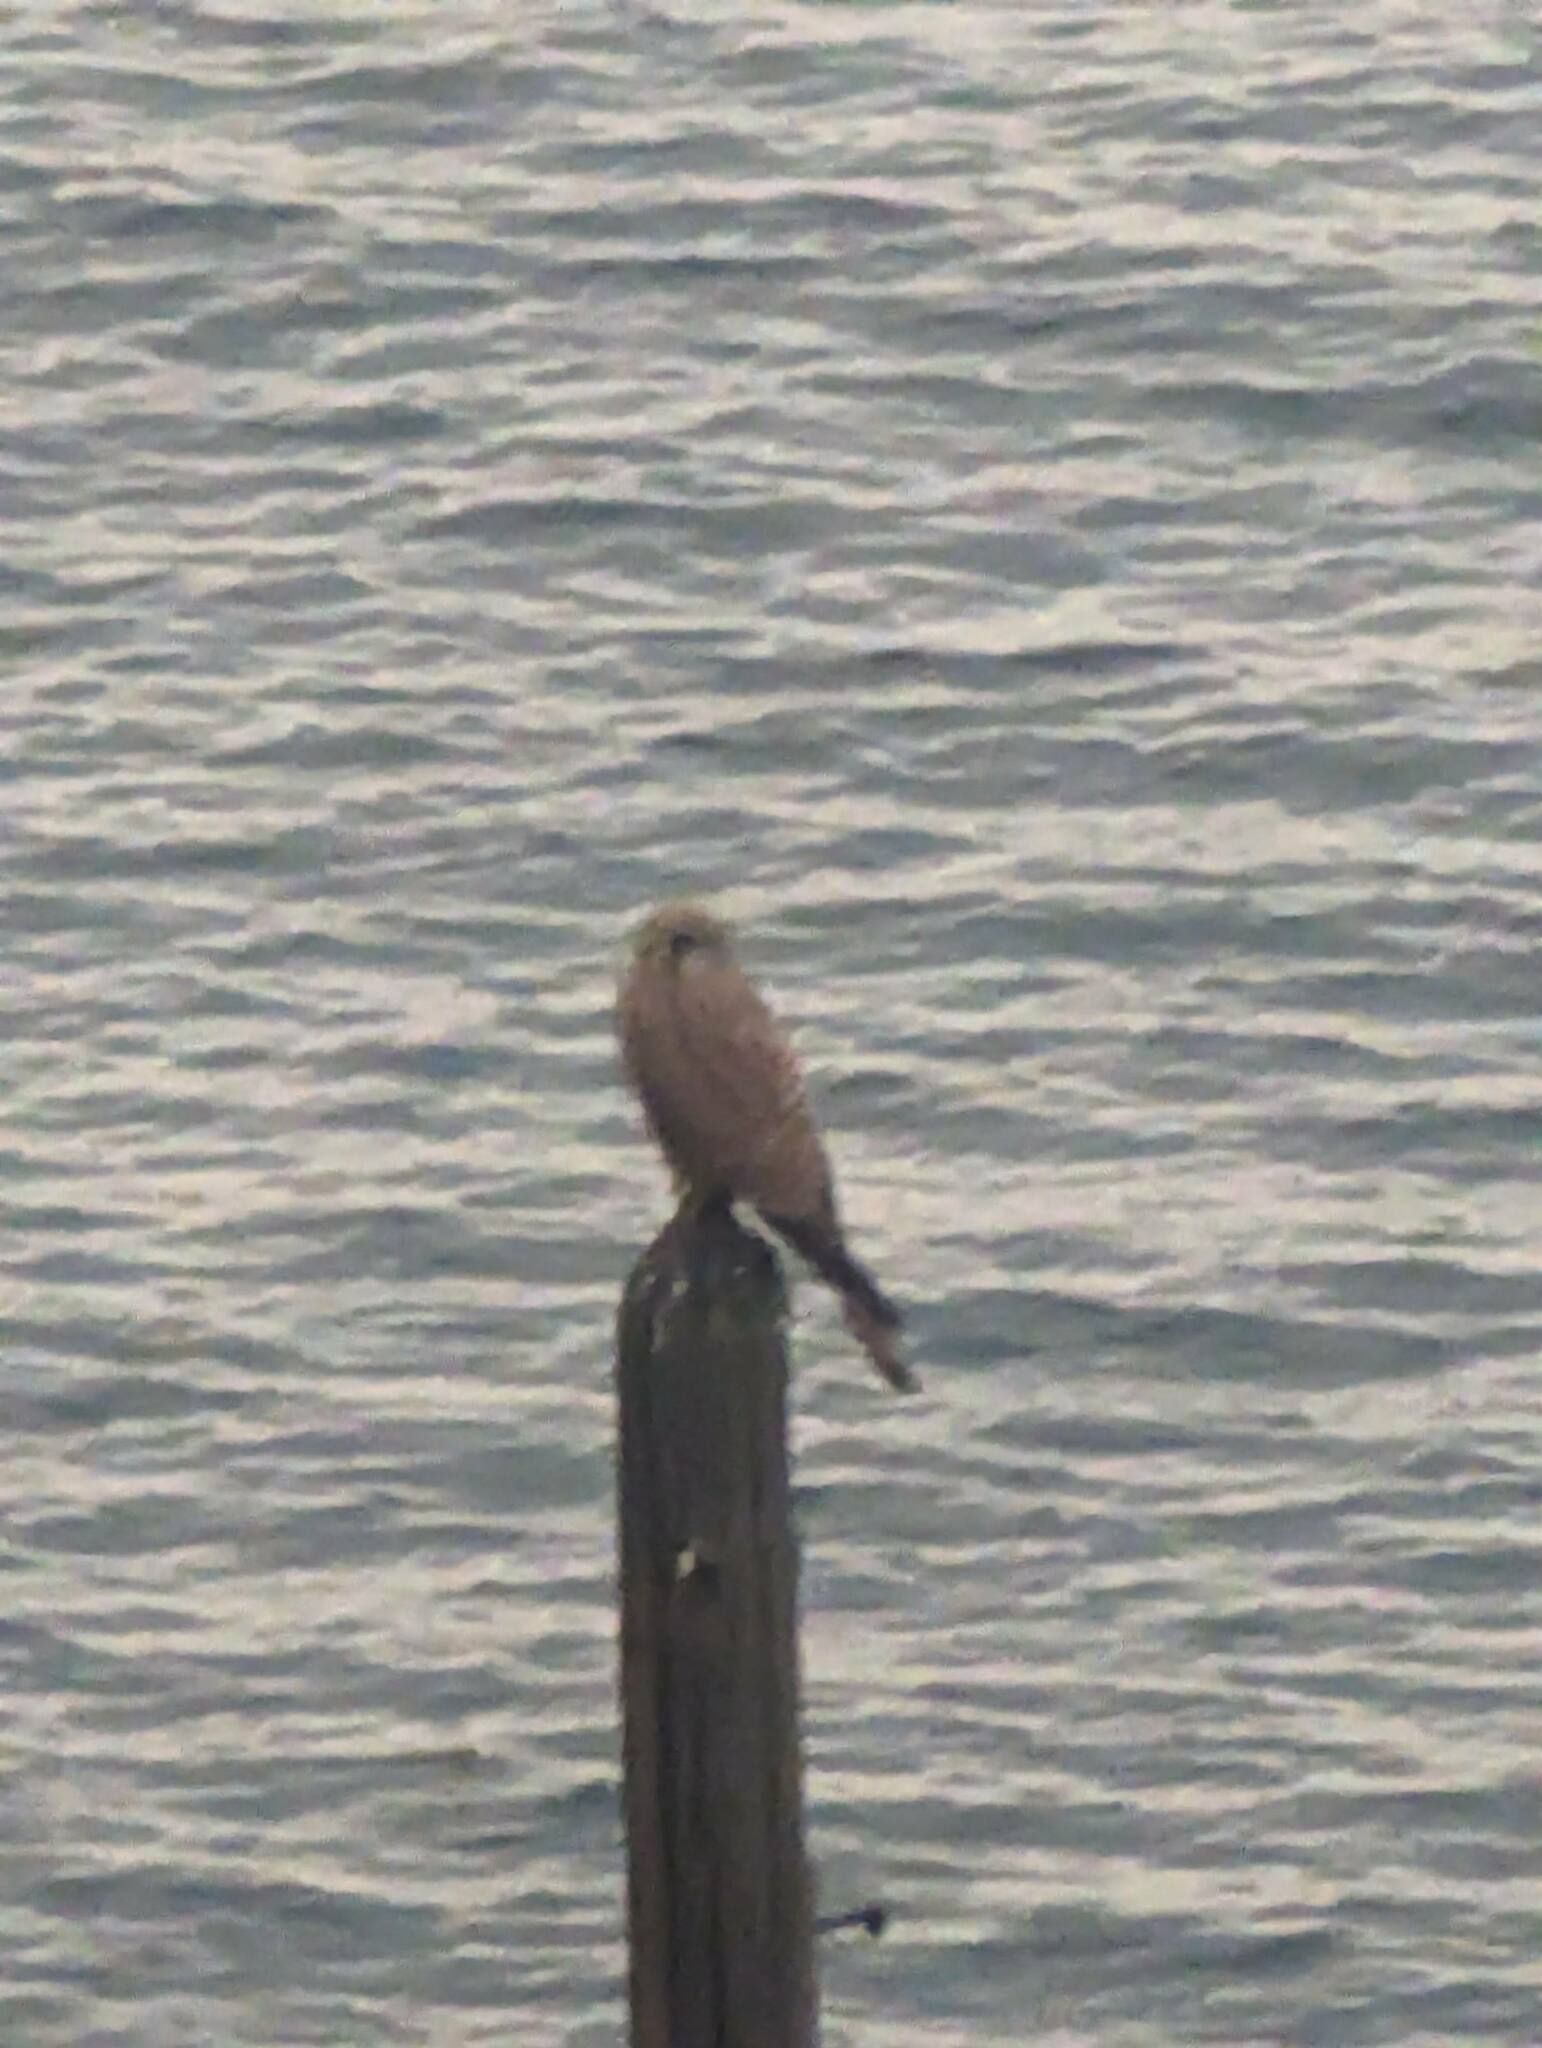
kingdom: Animalia
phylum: Chordata
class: Aves
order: Falconiformes
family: Falconidae
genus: Falco
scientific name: Falco tinnunculus
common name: Common kestrel
